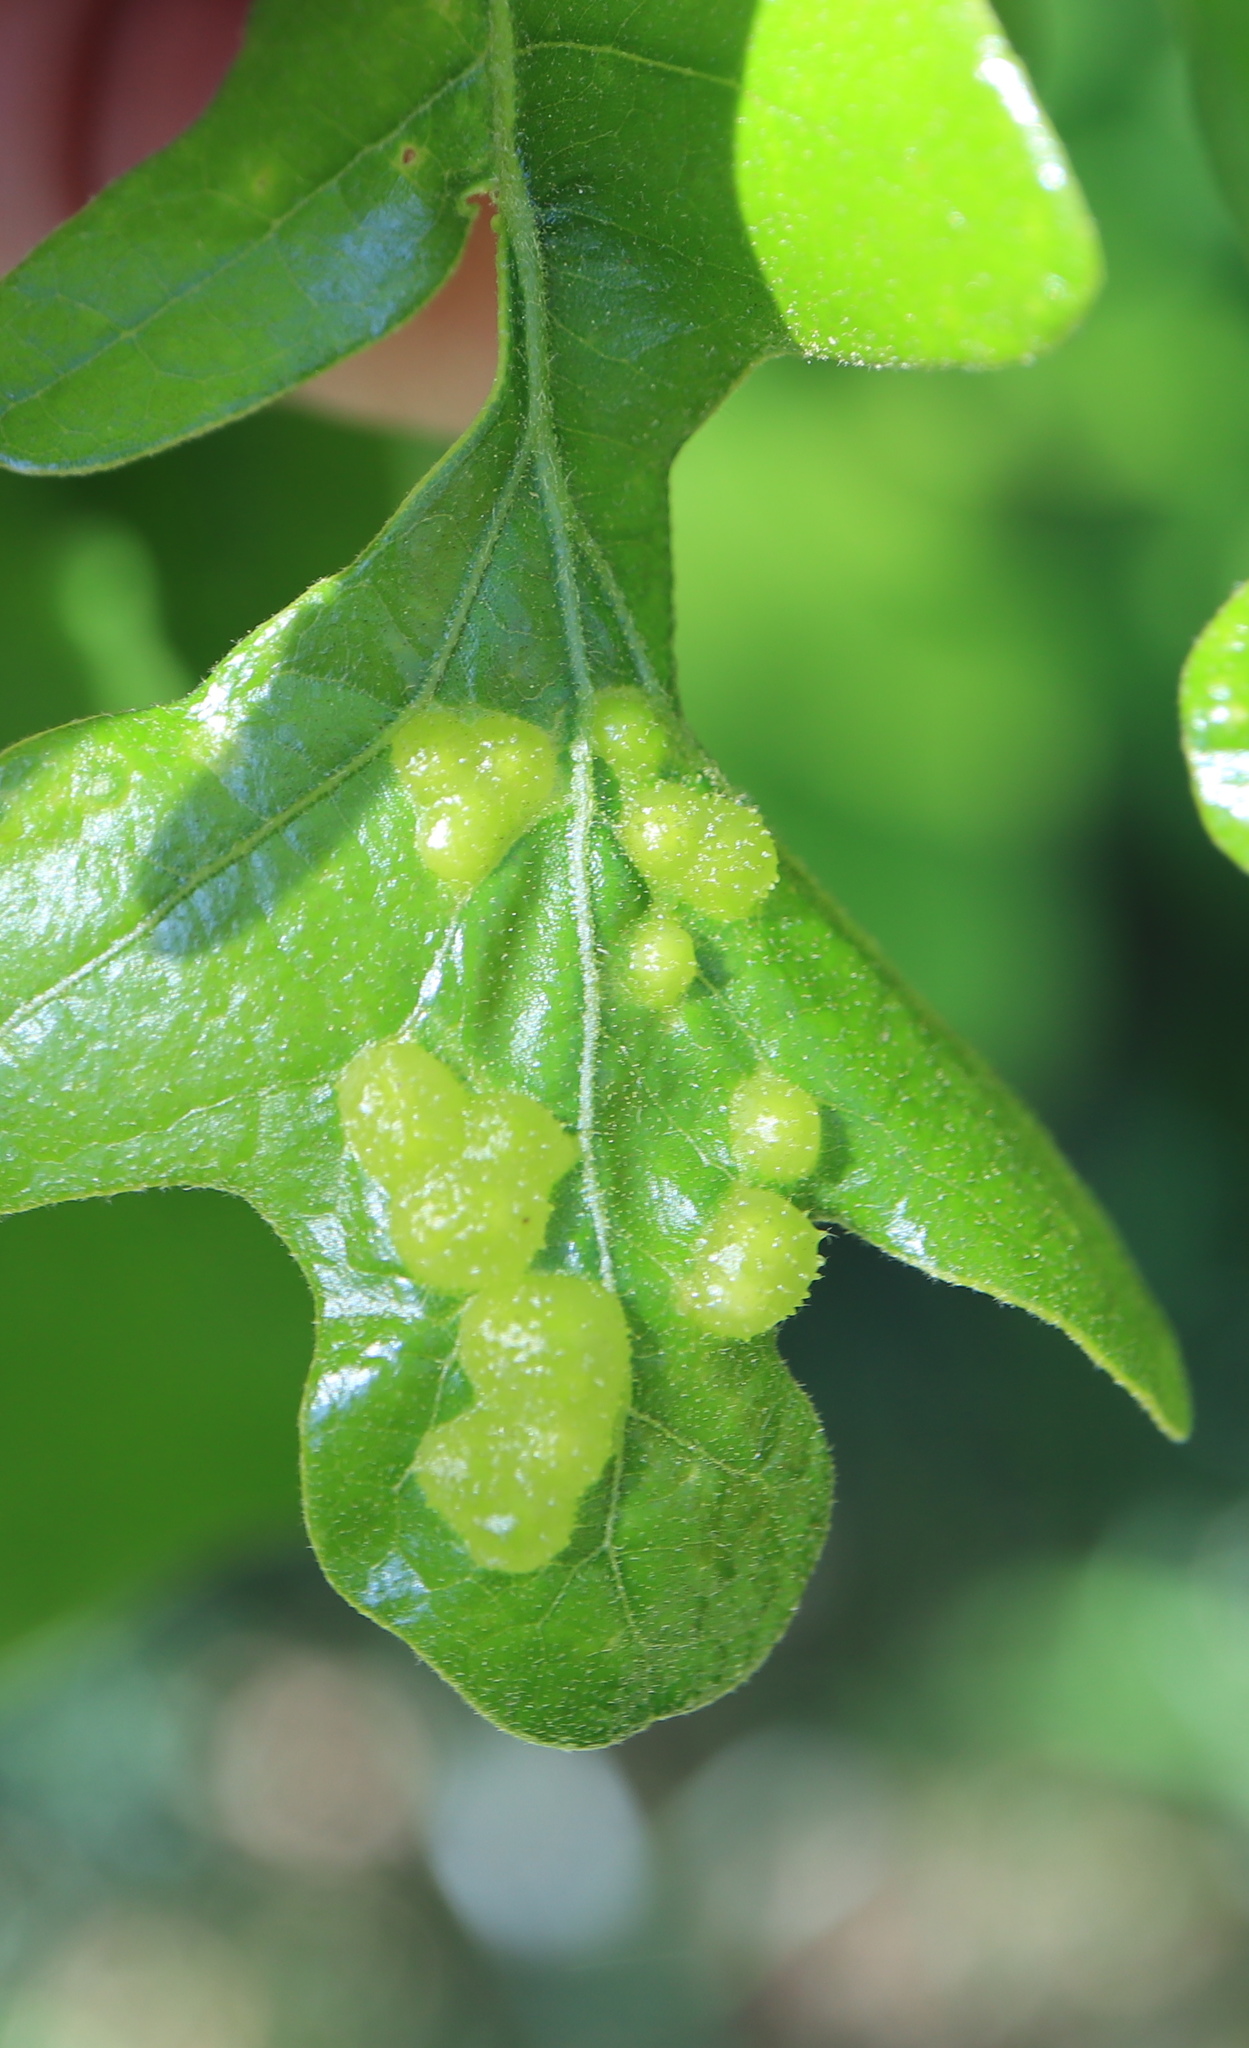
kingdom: Animalia
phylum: Arthropoda
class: Insecta
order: Hymenoptera
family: Cynipidae
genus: Neuroterus
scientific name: Neuroterus quercusirregularis
